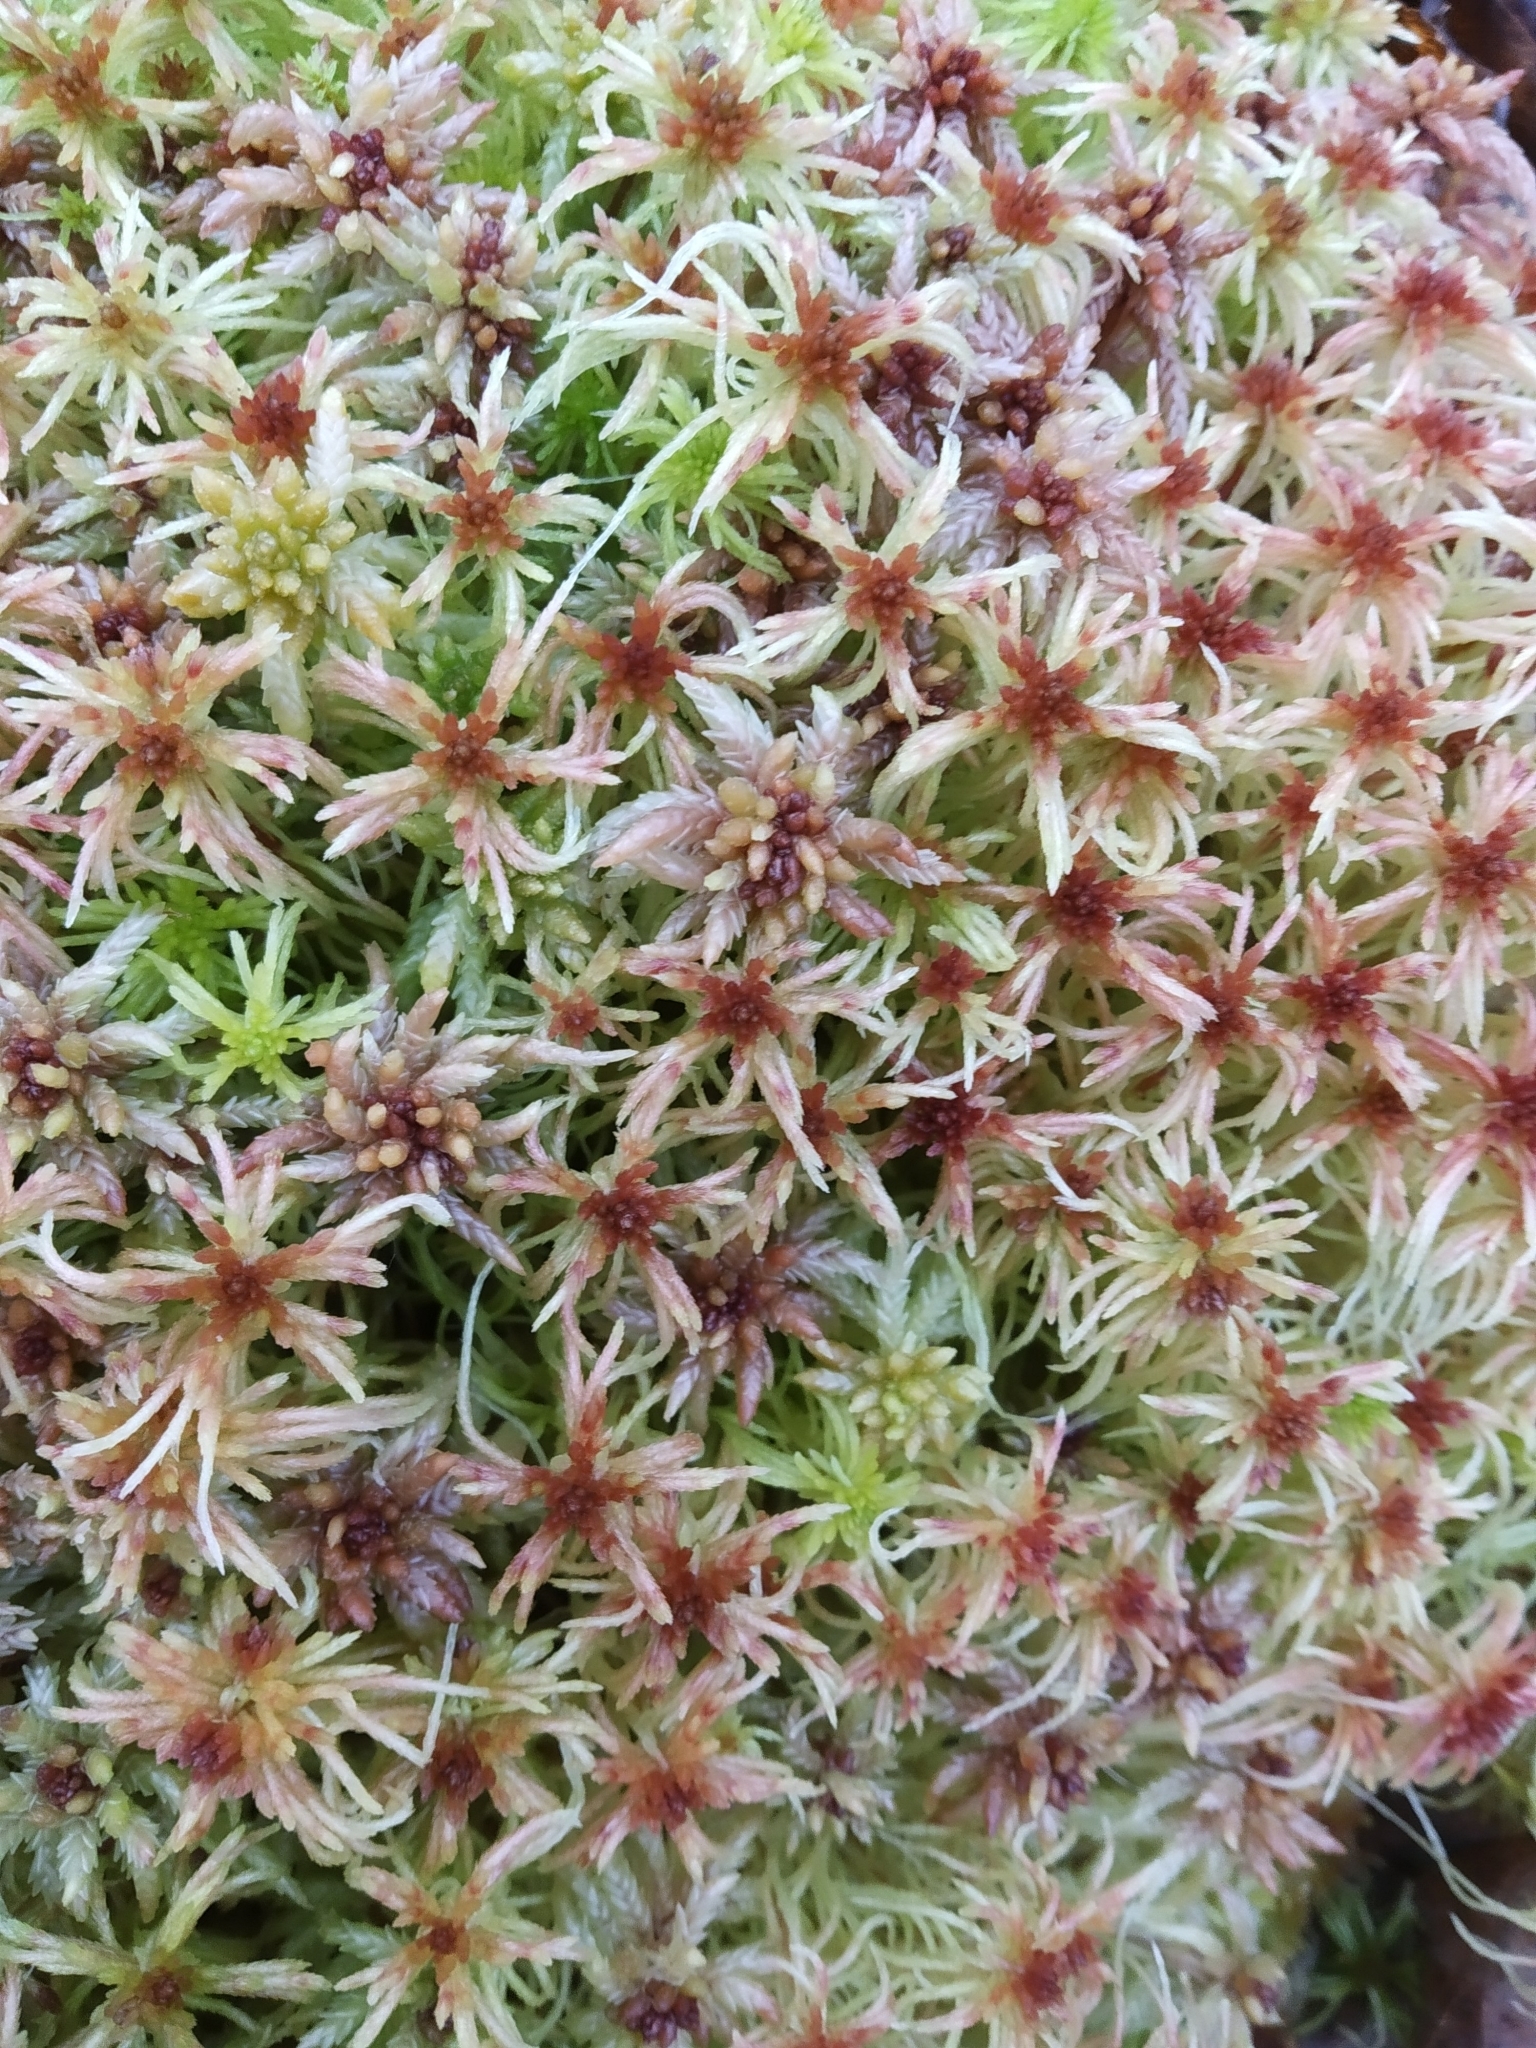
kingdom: Plantae
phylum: Bryophyta
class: Sphagnopsida
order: Sphagnales
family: Sphagnaceae
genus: Sphagnum
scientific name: Sphagnum russowii
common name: Russow's peat moss
